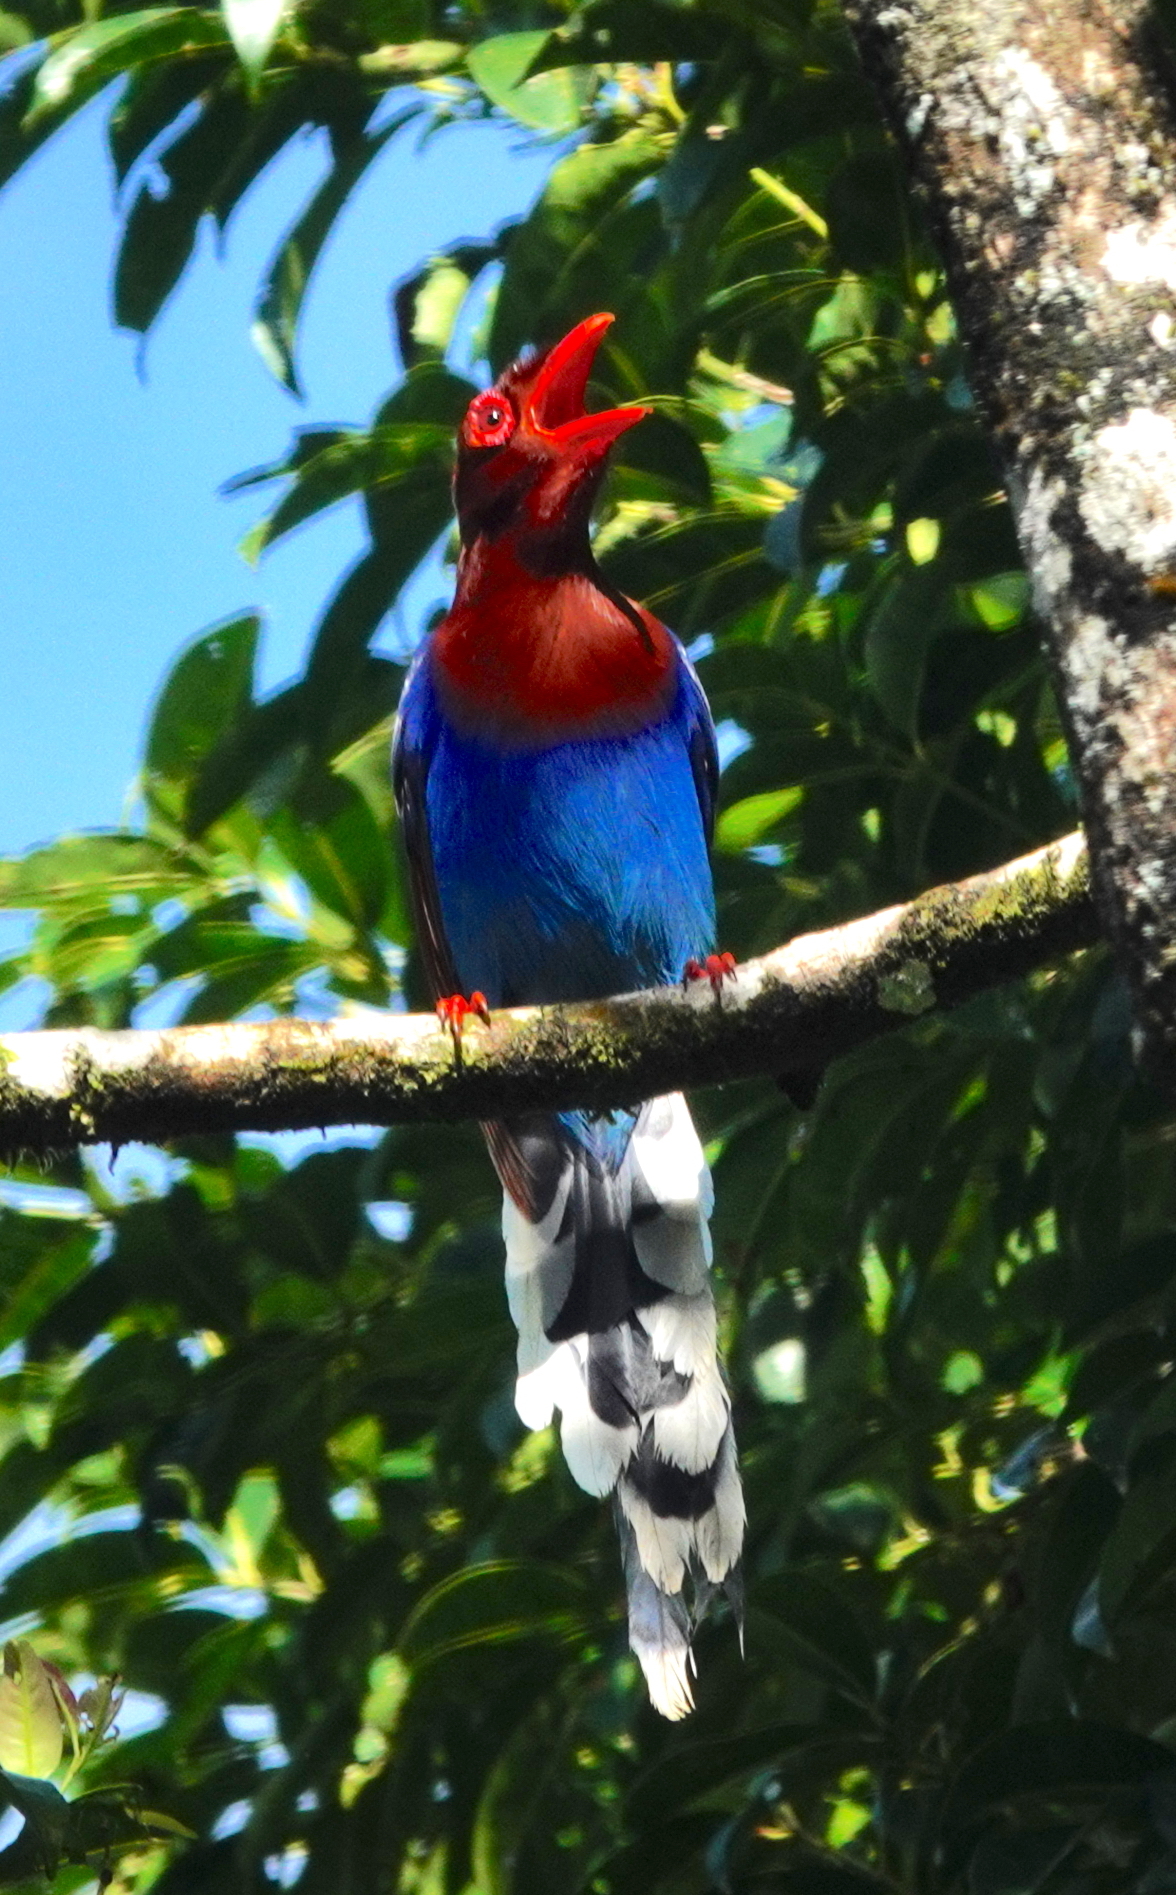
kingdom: Animalia
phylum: Chordata
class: Aves
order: Passeriformes
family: Corvidae
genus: Urocissa
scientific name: Urocissa ornata
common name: Sri lanka blue magpie
